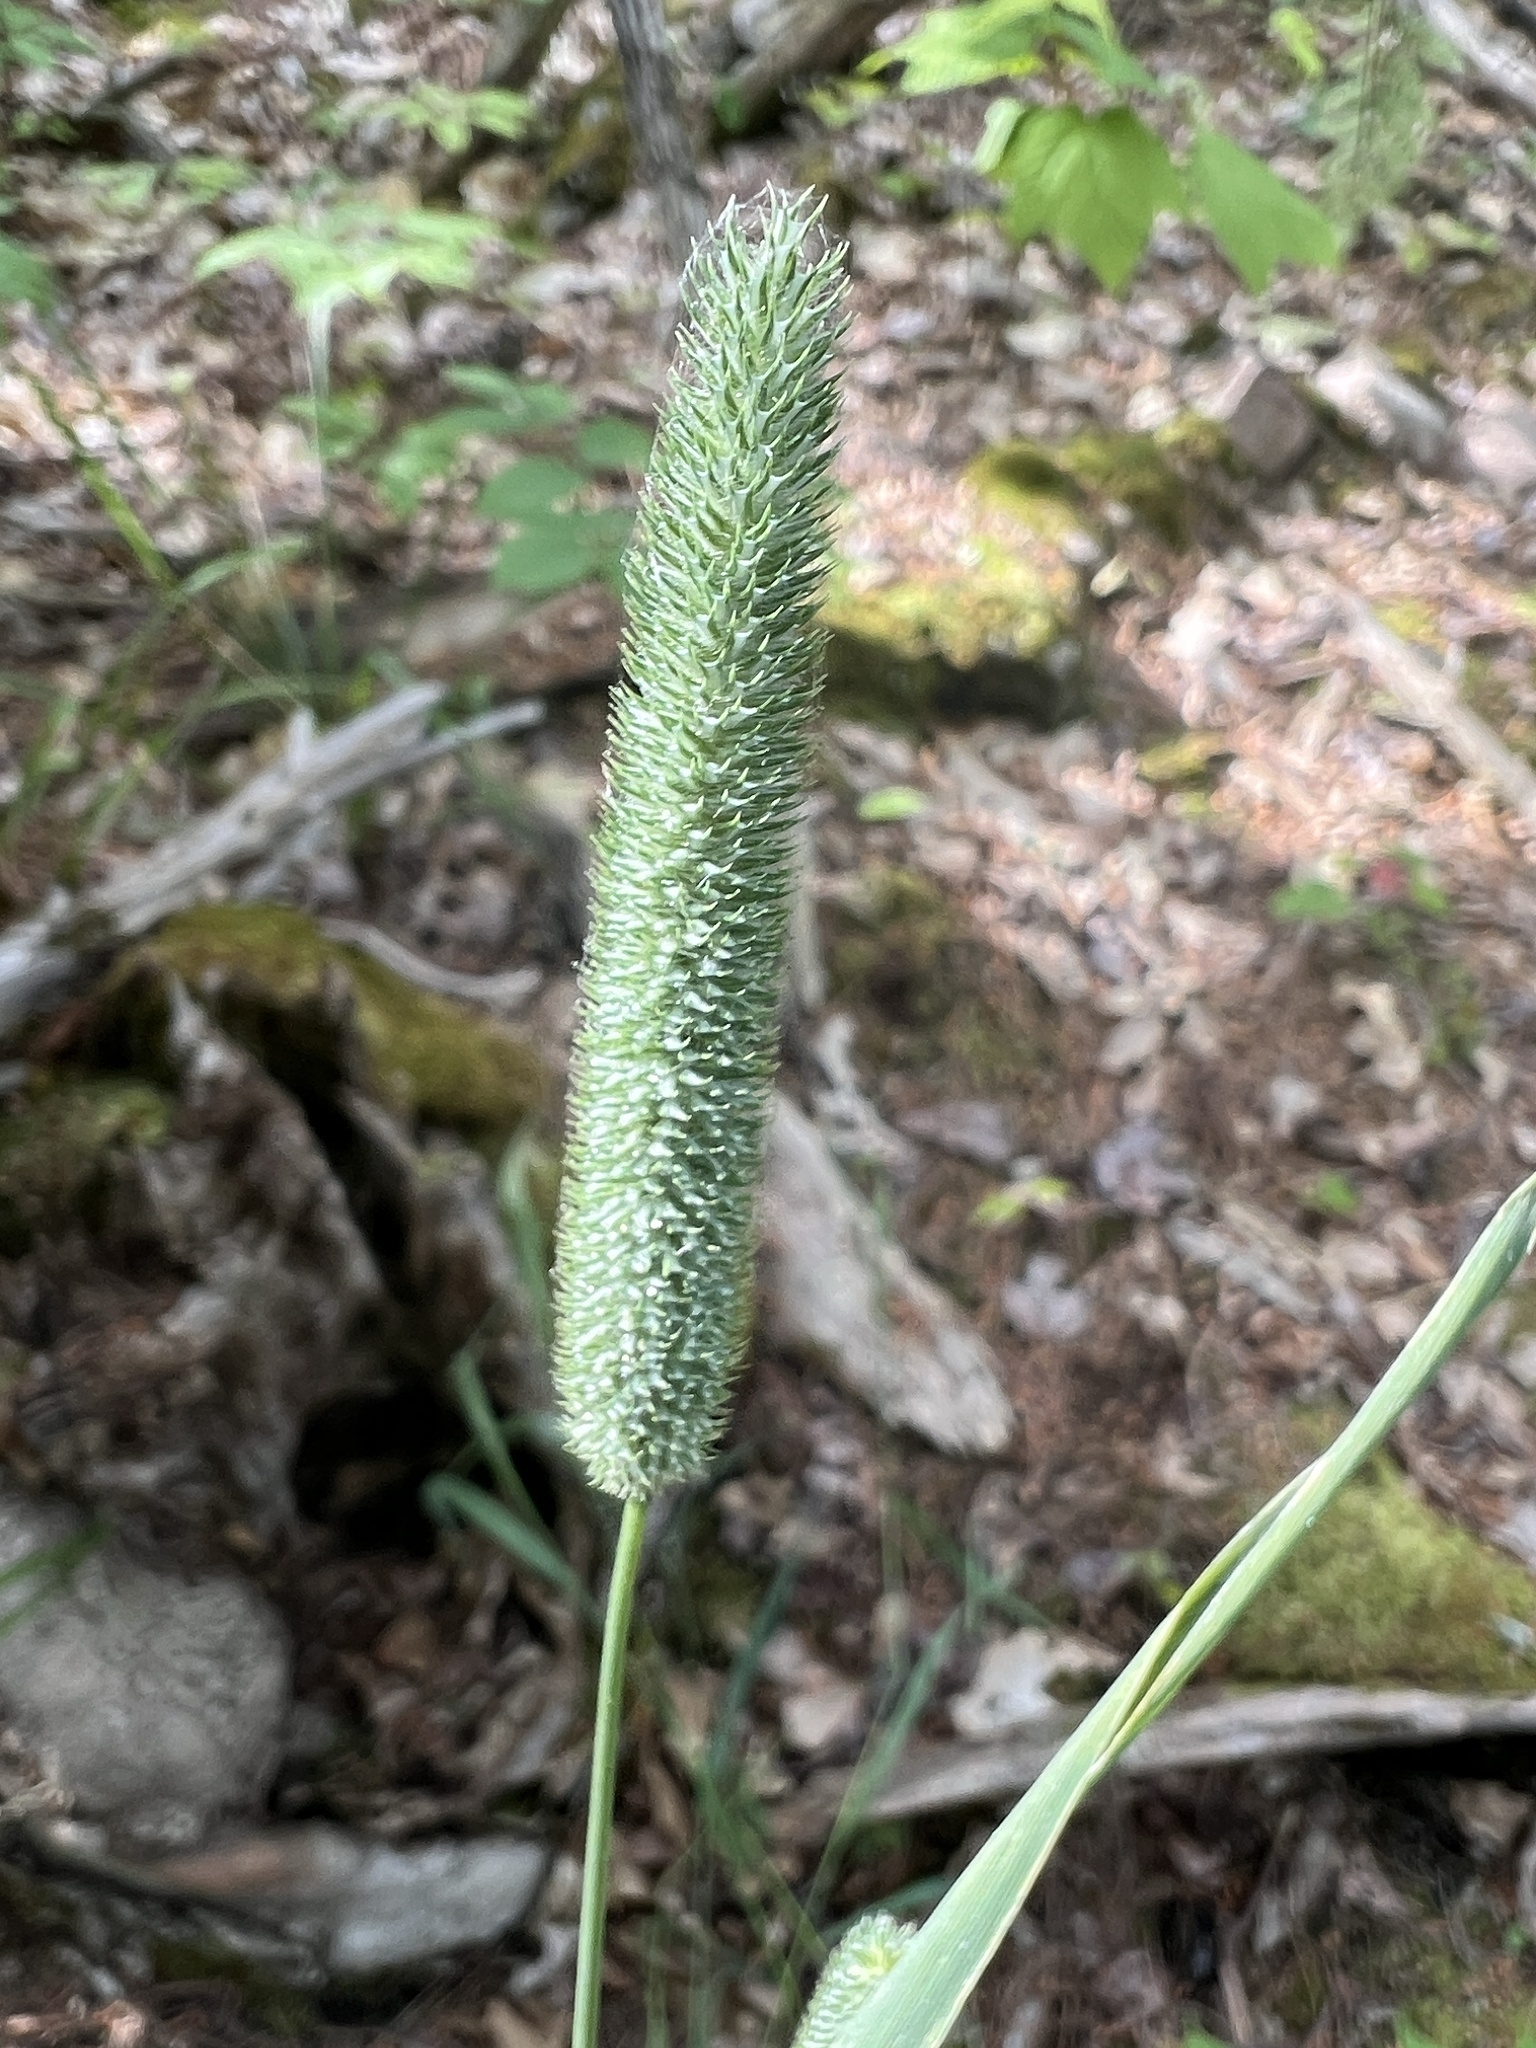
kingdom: Plantae
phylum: Tracheophyta
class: Liliopsida
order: Poales
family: Poaceae
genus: Phleum
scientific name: Phleum pratense
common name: Timothy grass
